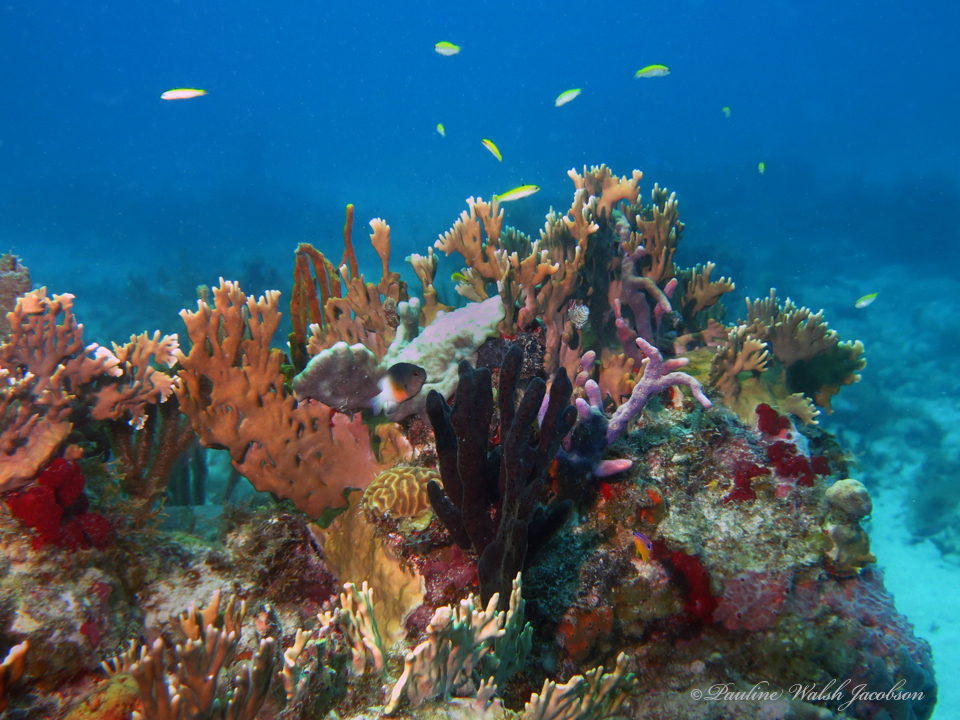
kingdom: Animalia
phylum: Chordata
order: Perciformes
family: Pomacentridae
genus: Stegastes
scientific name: Stegastes partitus
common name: Bicolor damselfish
